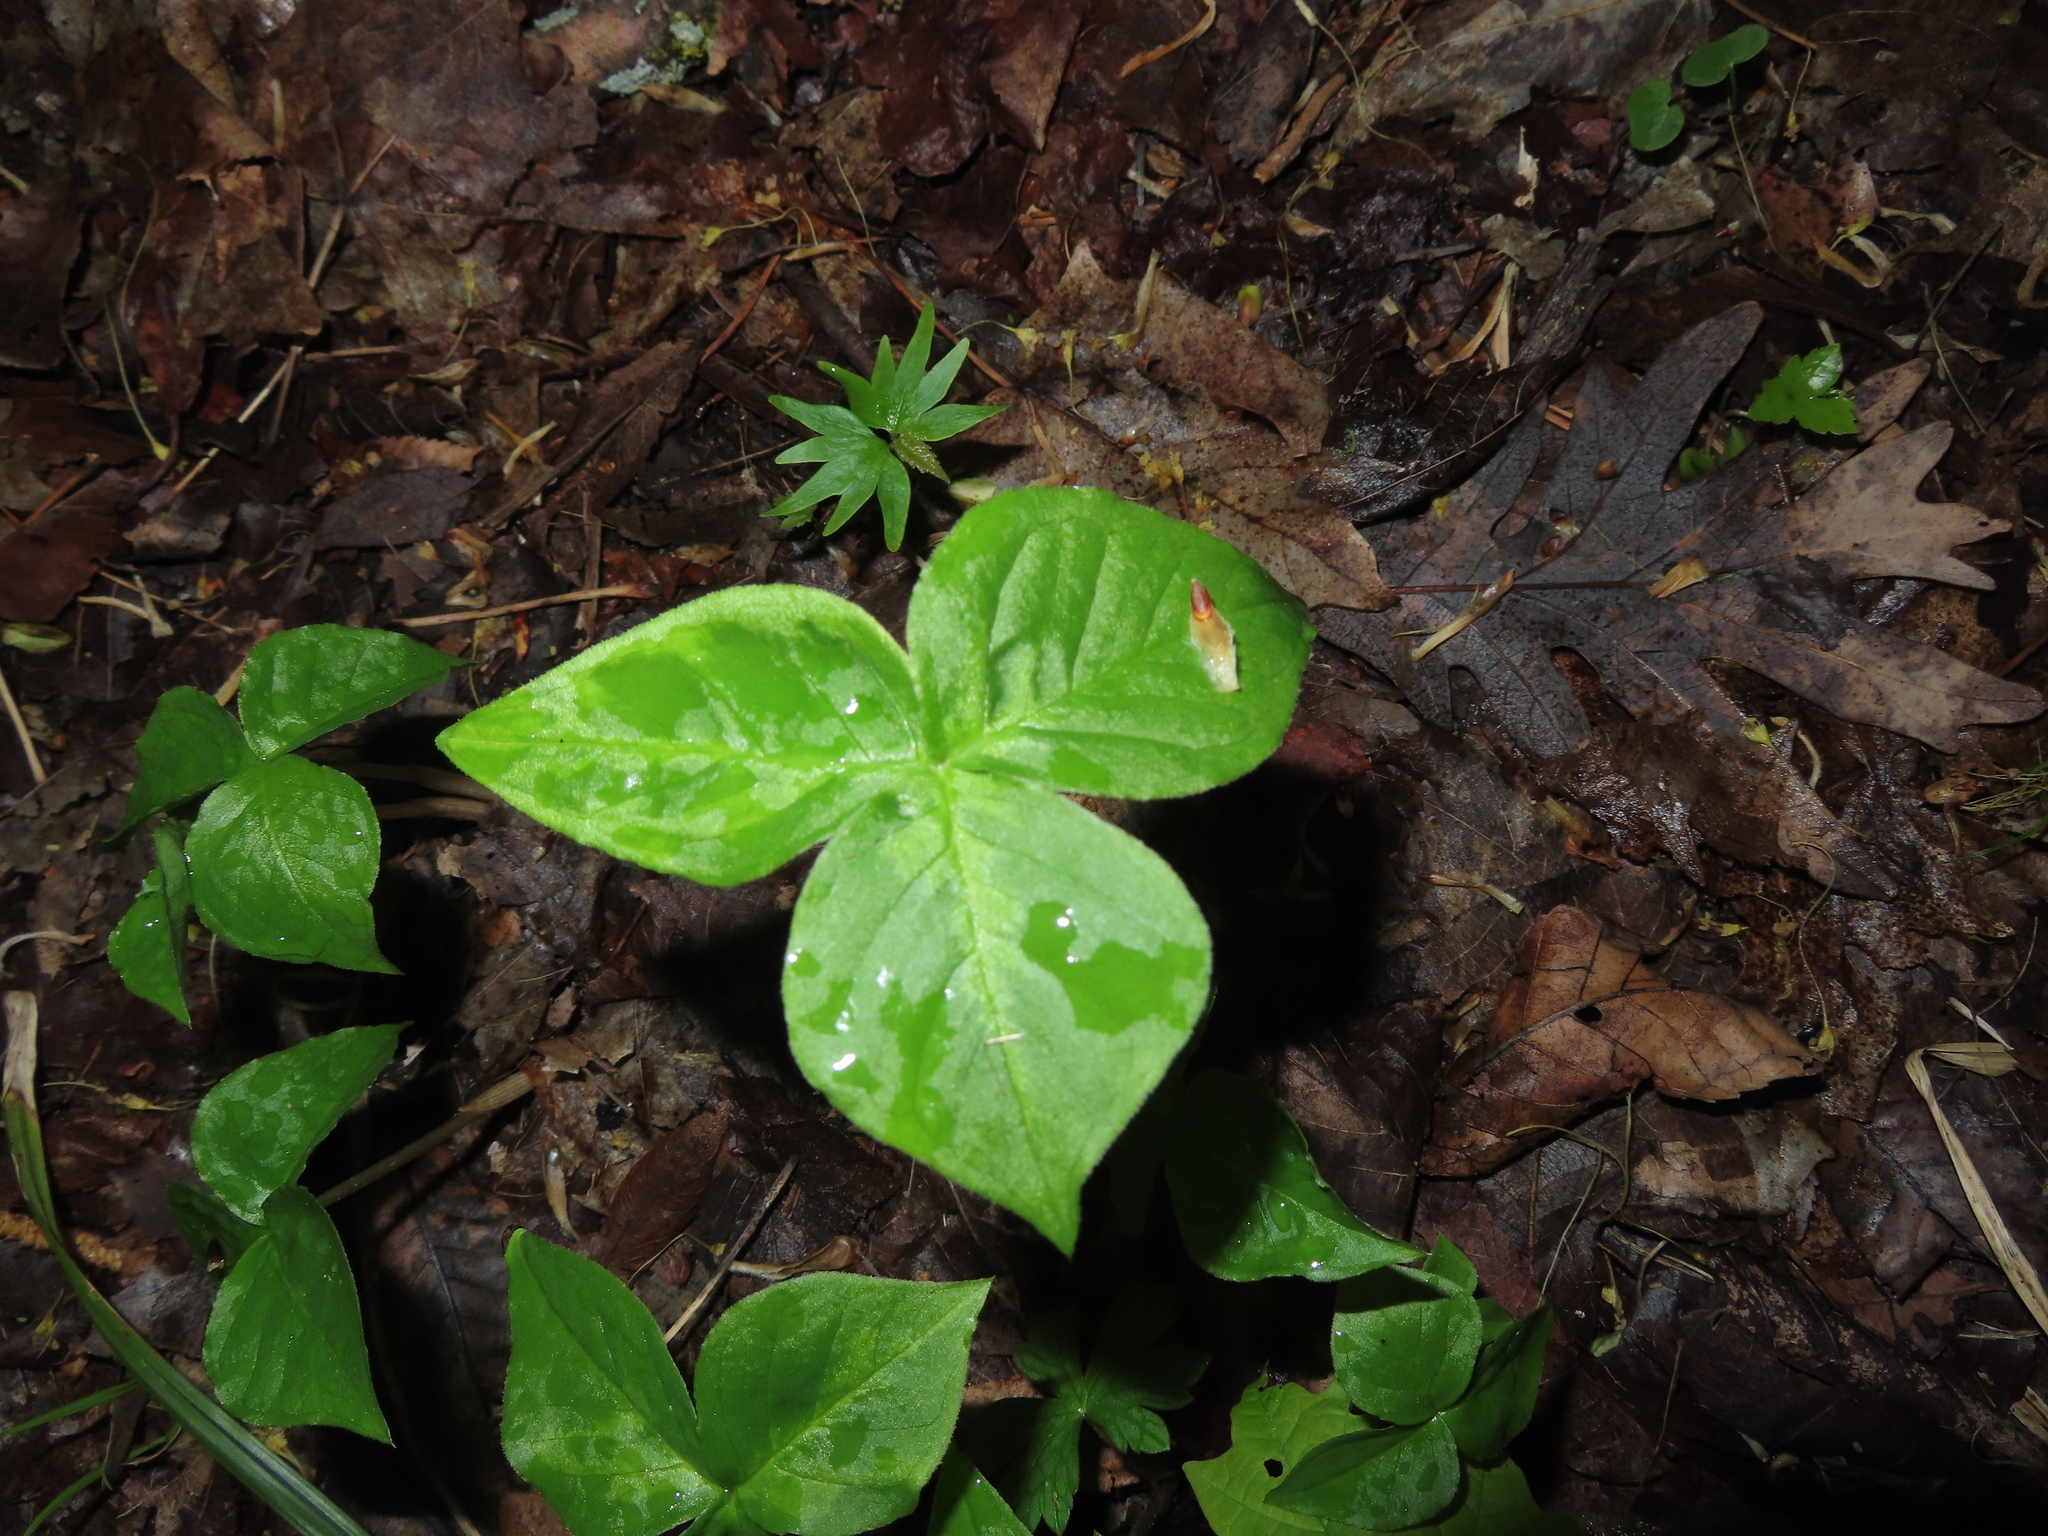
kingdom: Plantae
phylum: Tracheophyta
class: Liliopsida
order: Alismatales
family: Araceae
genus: Arisaema
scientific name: Arisaema triphyllum
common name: Jack-in-the-pulpit
